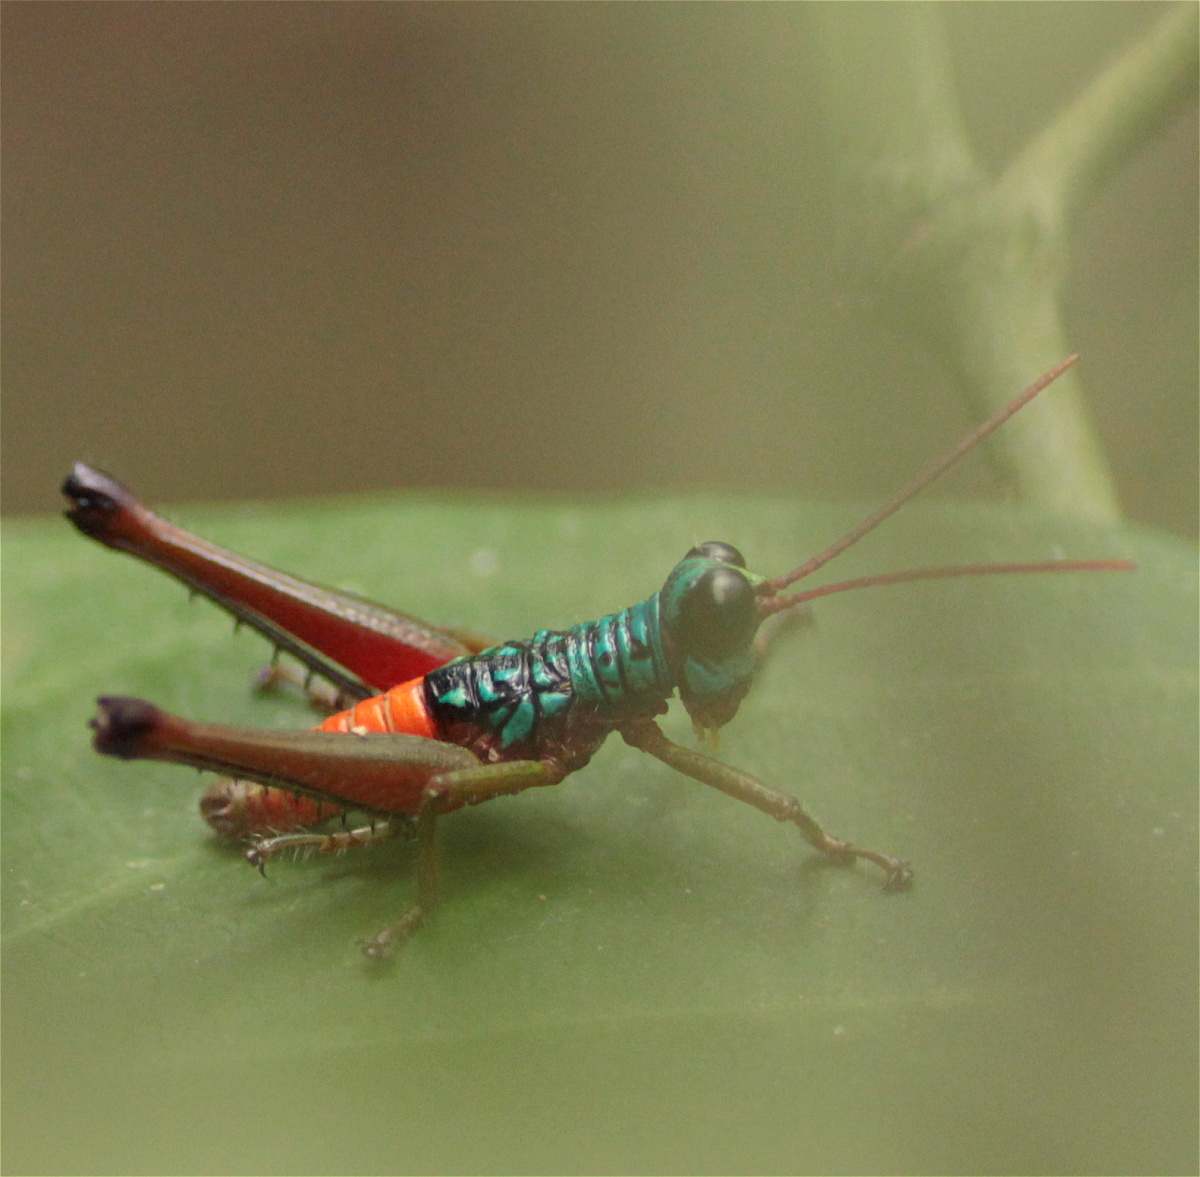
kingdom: Animalia
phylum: Arthropoda
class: Insecta
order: Orthoptera
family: Acrididae
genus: Opaonella
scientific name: Opaonella tenuis
